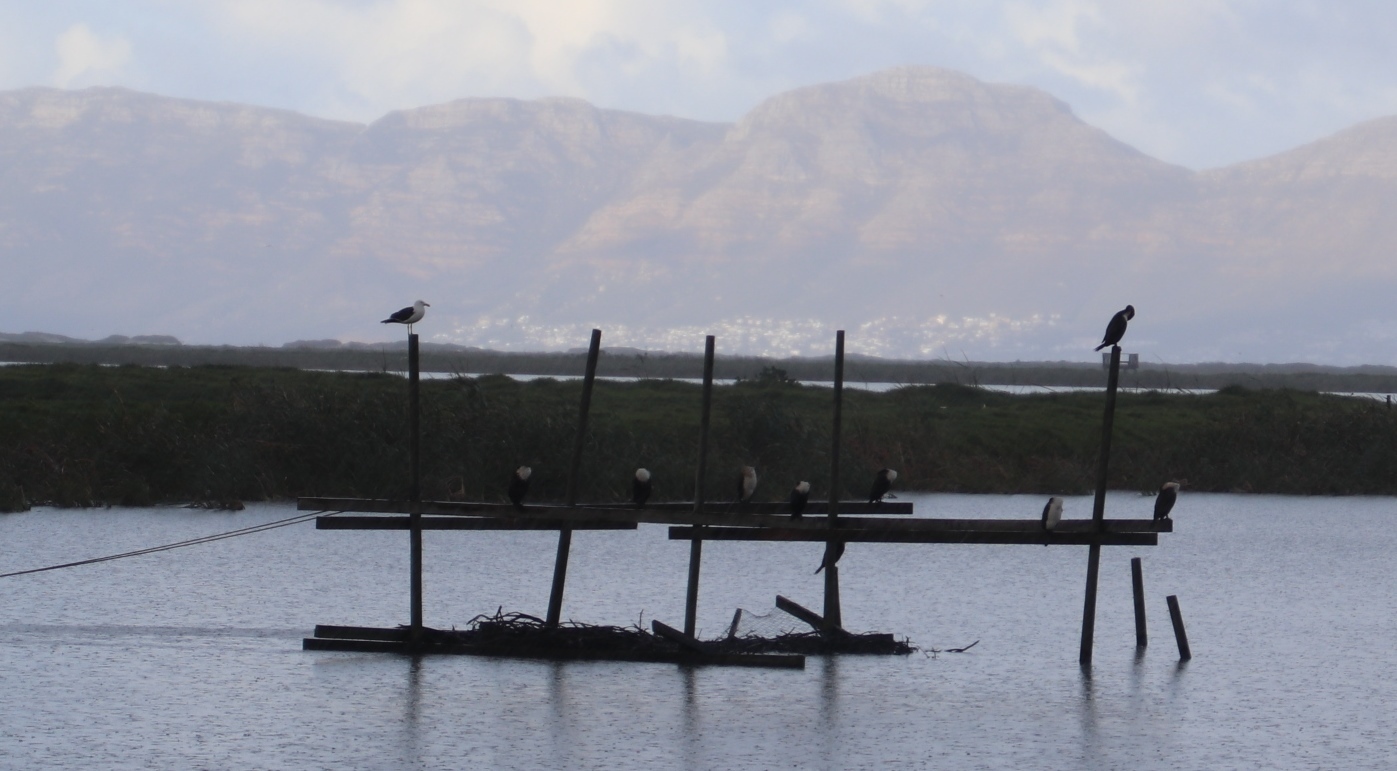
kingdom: Animalia
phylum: Chordata
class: Aves
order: Suliformes
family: Phalacrocoracidae
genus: Phalacrocorax
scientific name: Phalacrocorax carbo
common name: Great cormorant
